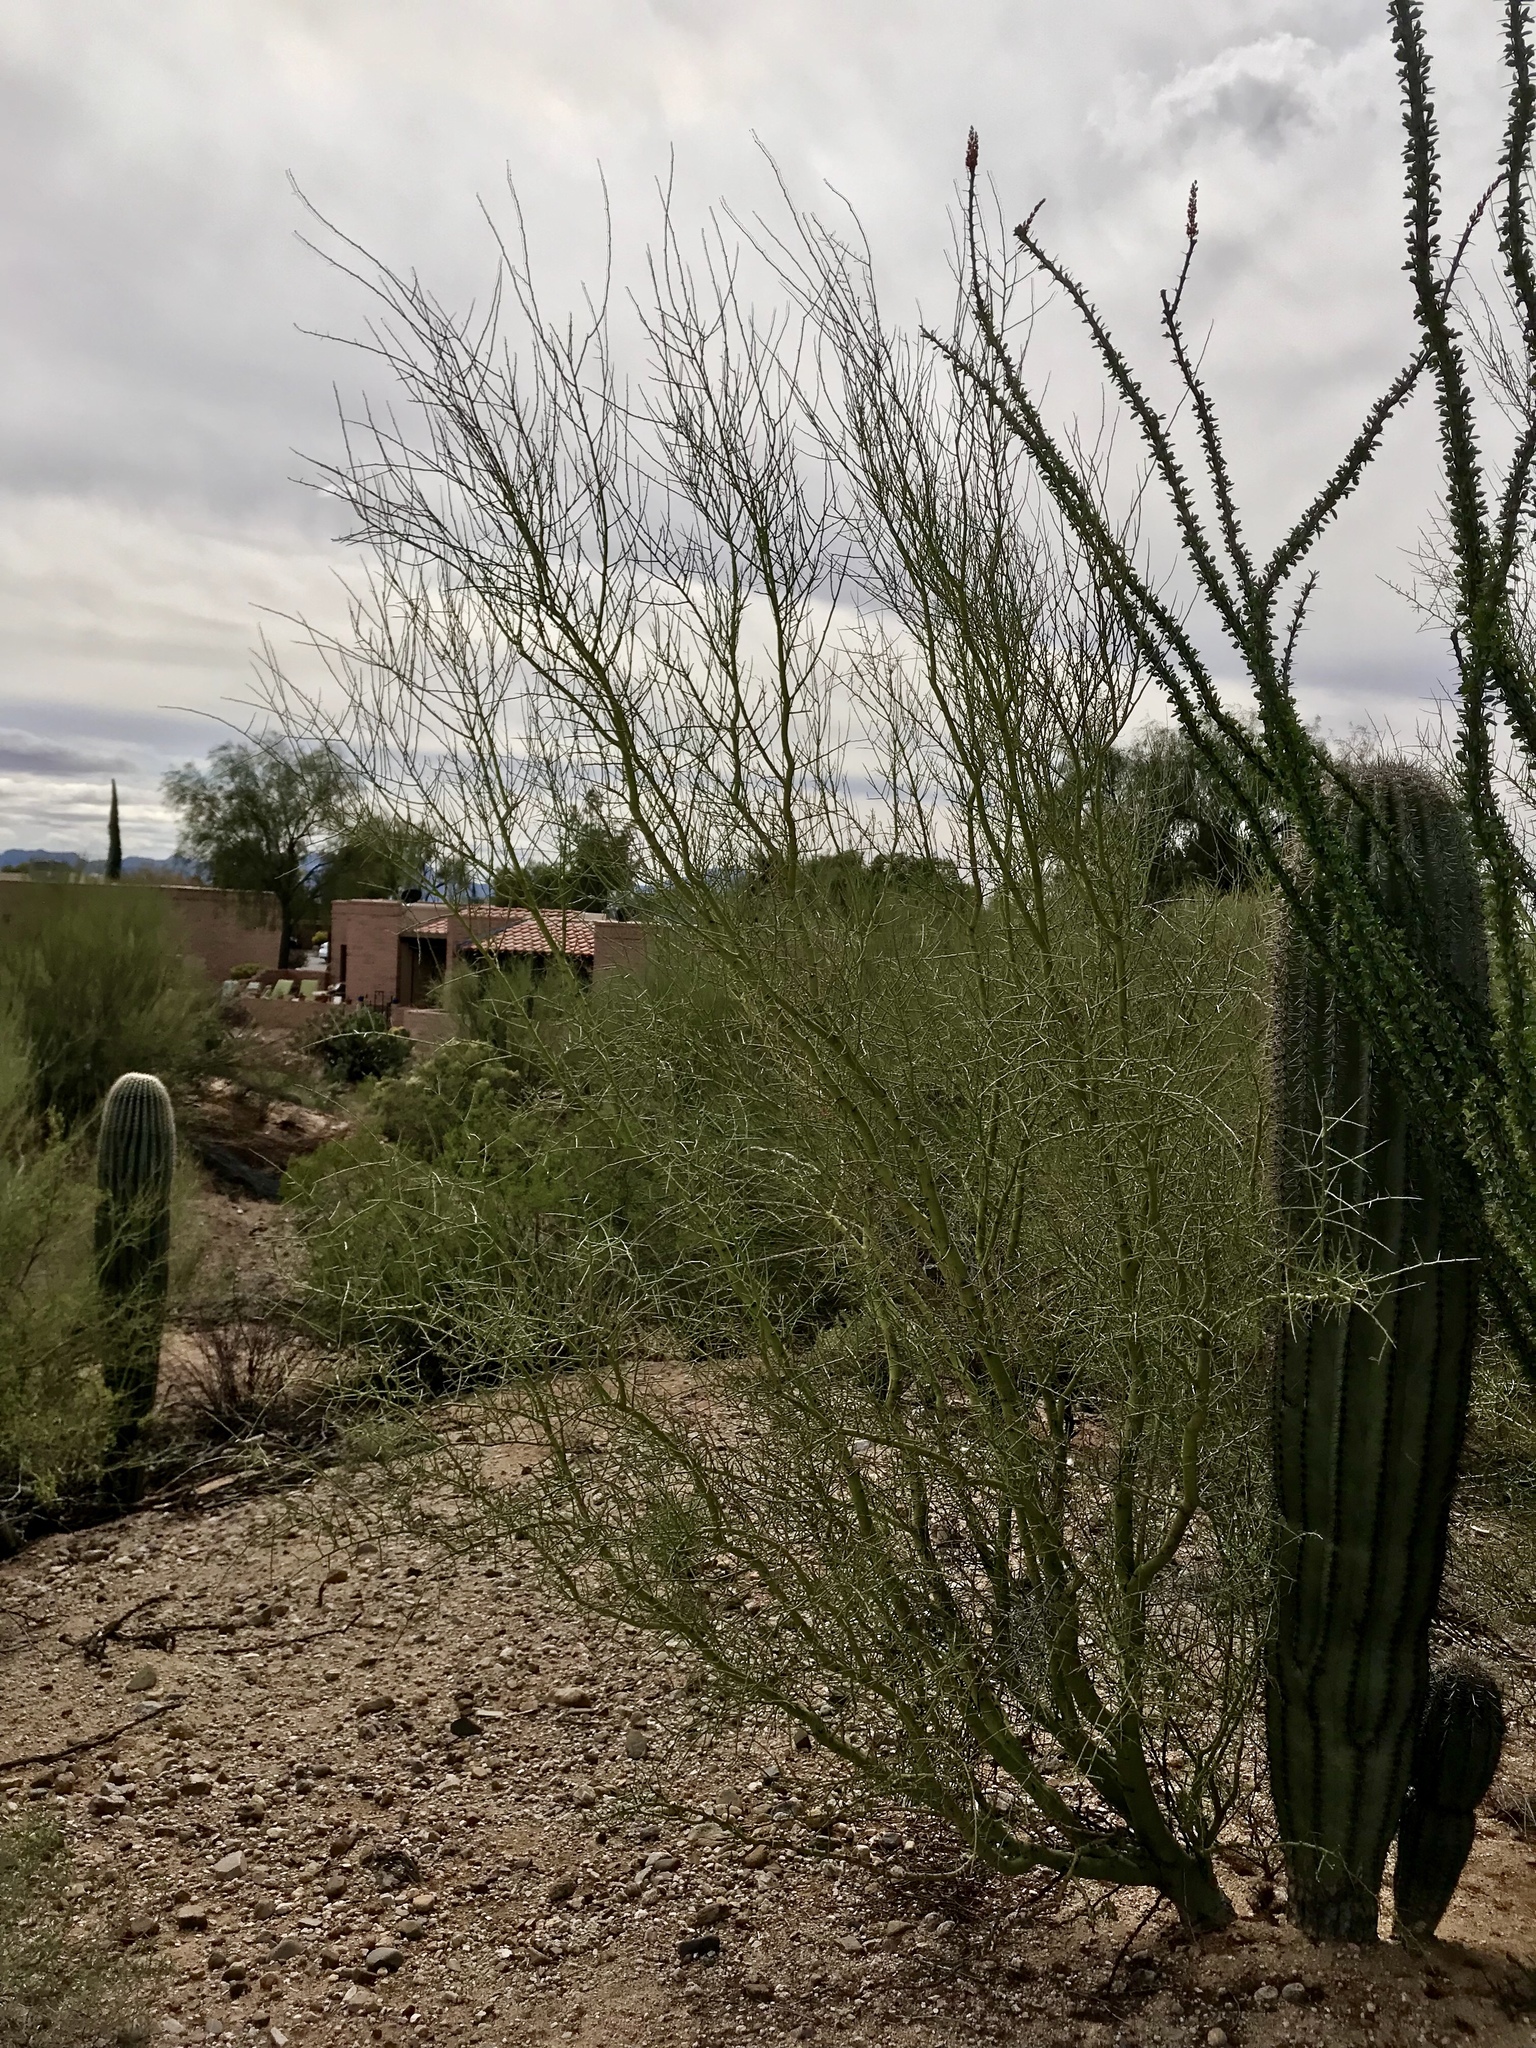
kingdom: Plantae
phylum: Tracheophyta
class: Magnoliopsida
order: Fabales
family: Fabaceae
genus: Parkinsonia
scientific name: Parkinsonia microphylla
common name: Yellow paloverde
